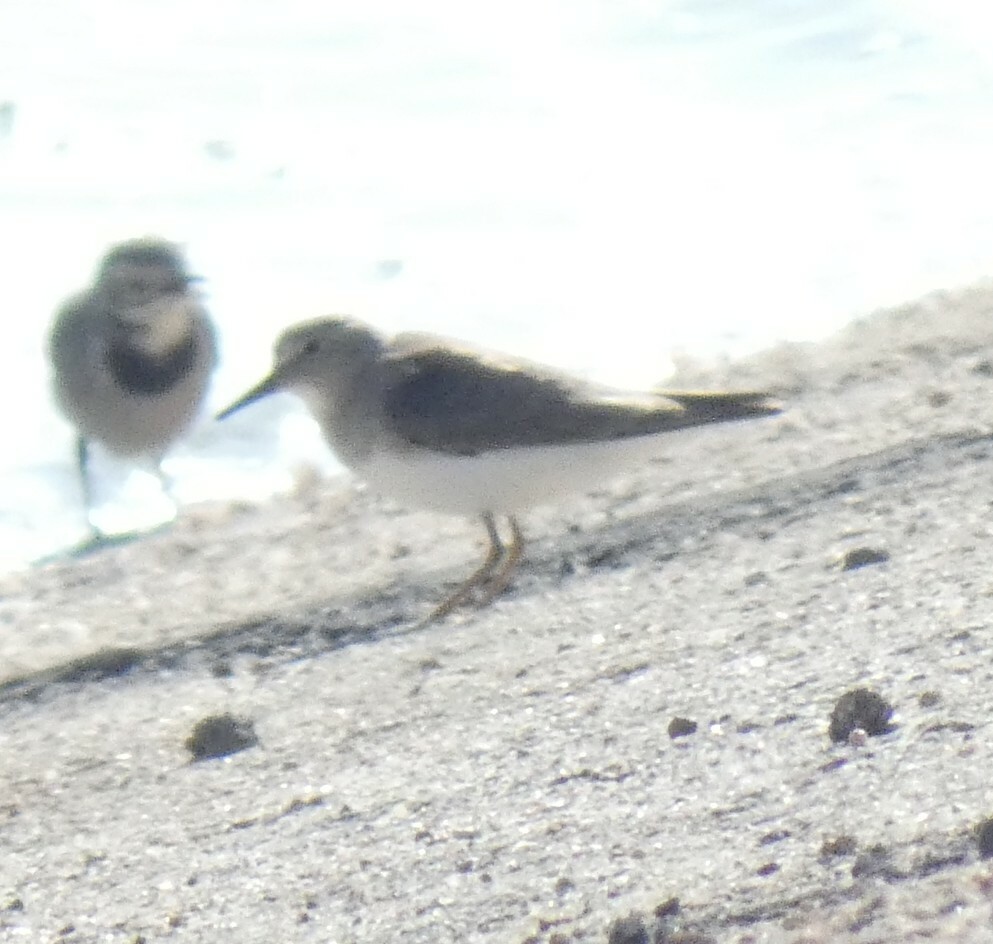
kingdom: Animalia
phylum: Chordata
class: Aves
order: Charadriiformes
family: Scolopacidae
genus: Calidris
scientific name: Calidris temminckii
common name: Temminck's stint
